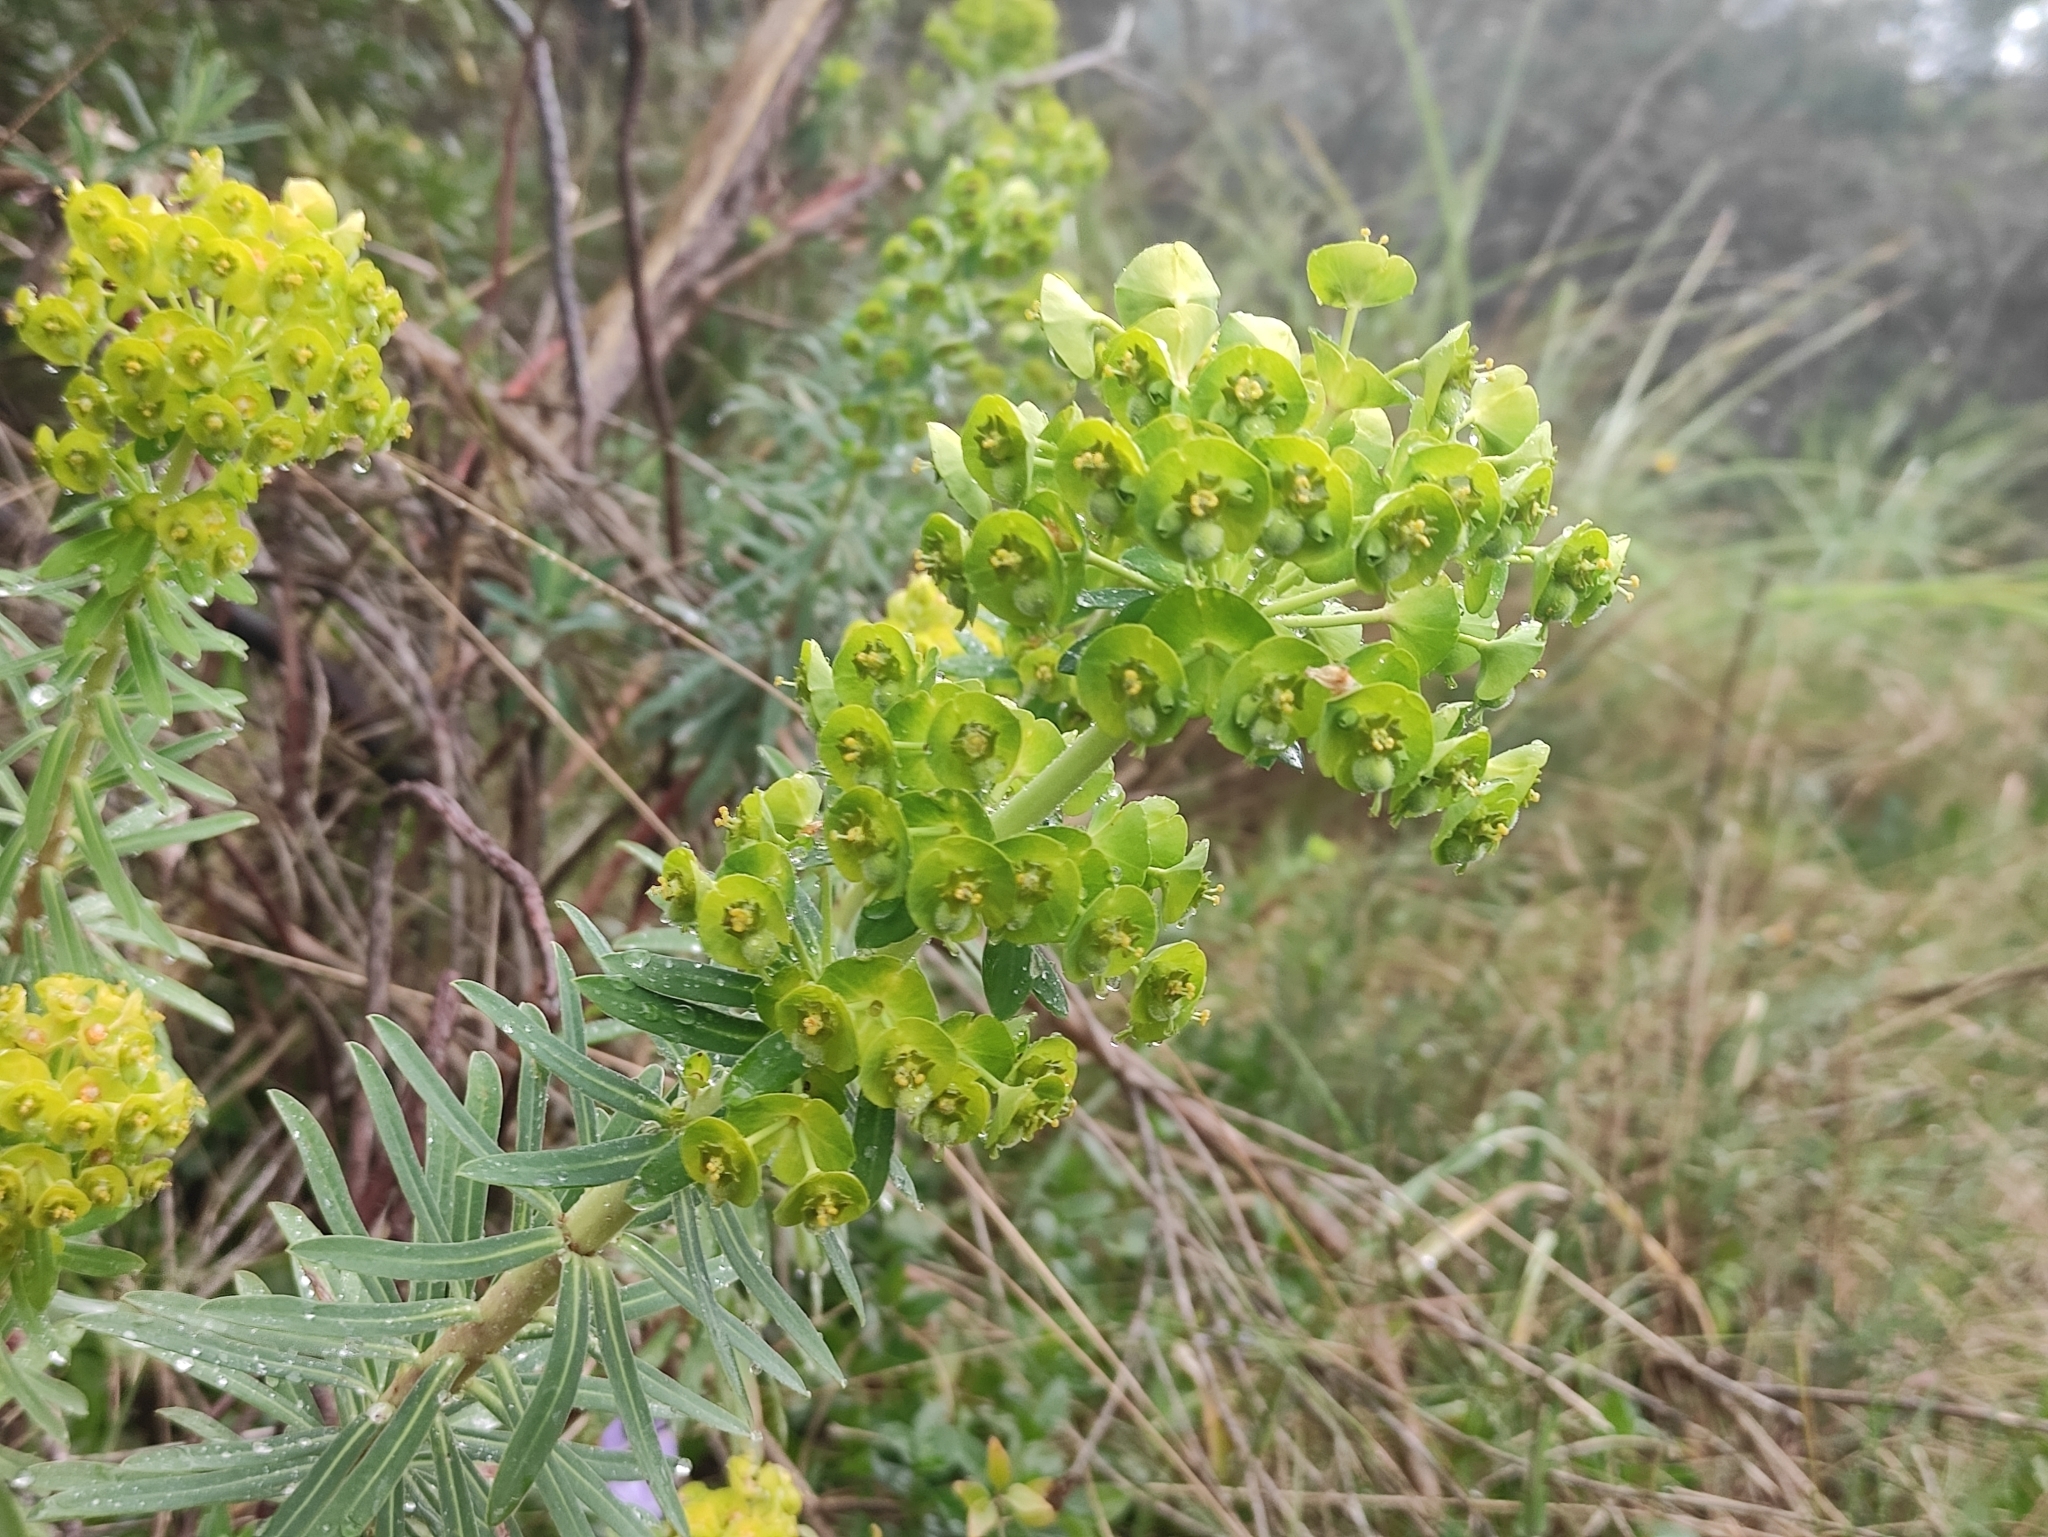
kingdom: Plantae
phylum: Tracheophyta
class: Magnoliopsida
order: Malpighiales
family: Euphorbiaceae
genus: Euphorbia
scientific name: Euphorbia characias
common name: Mediterranean spurge
